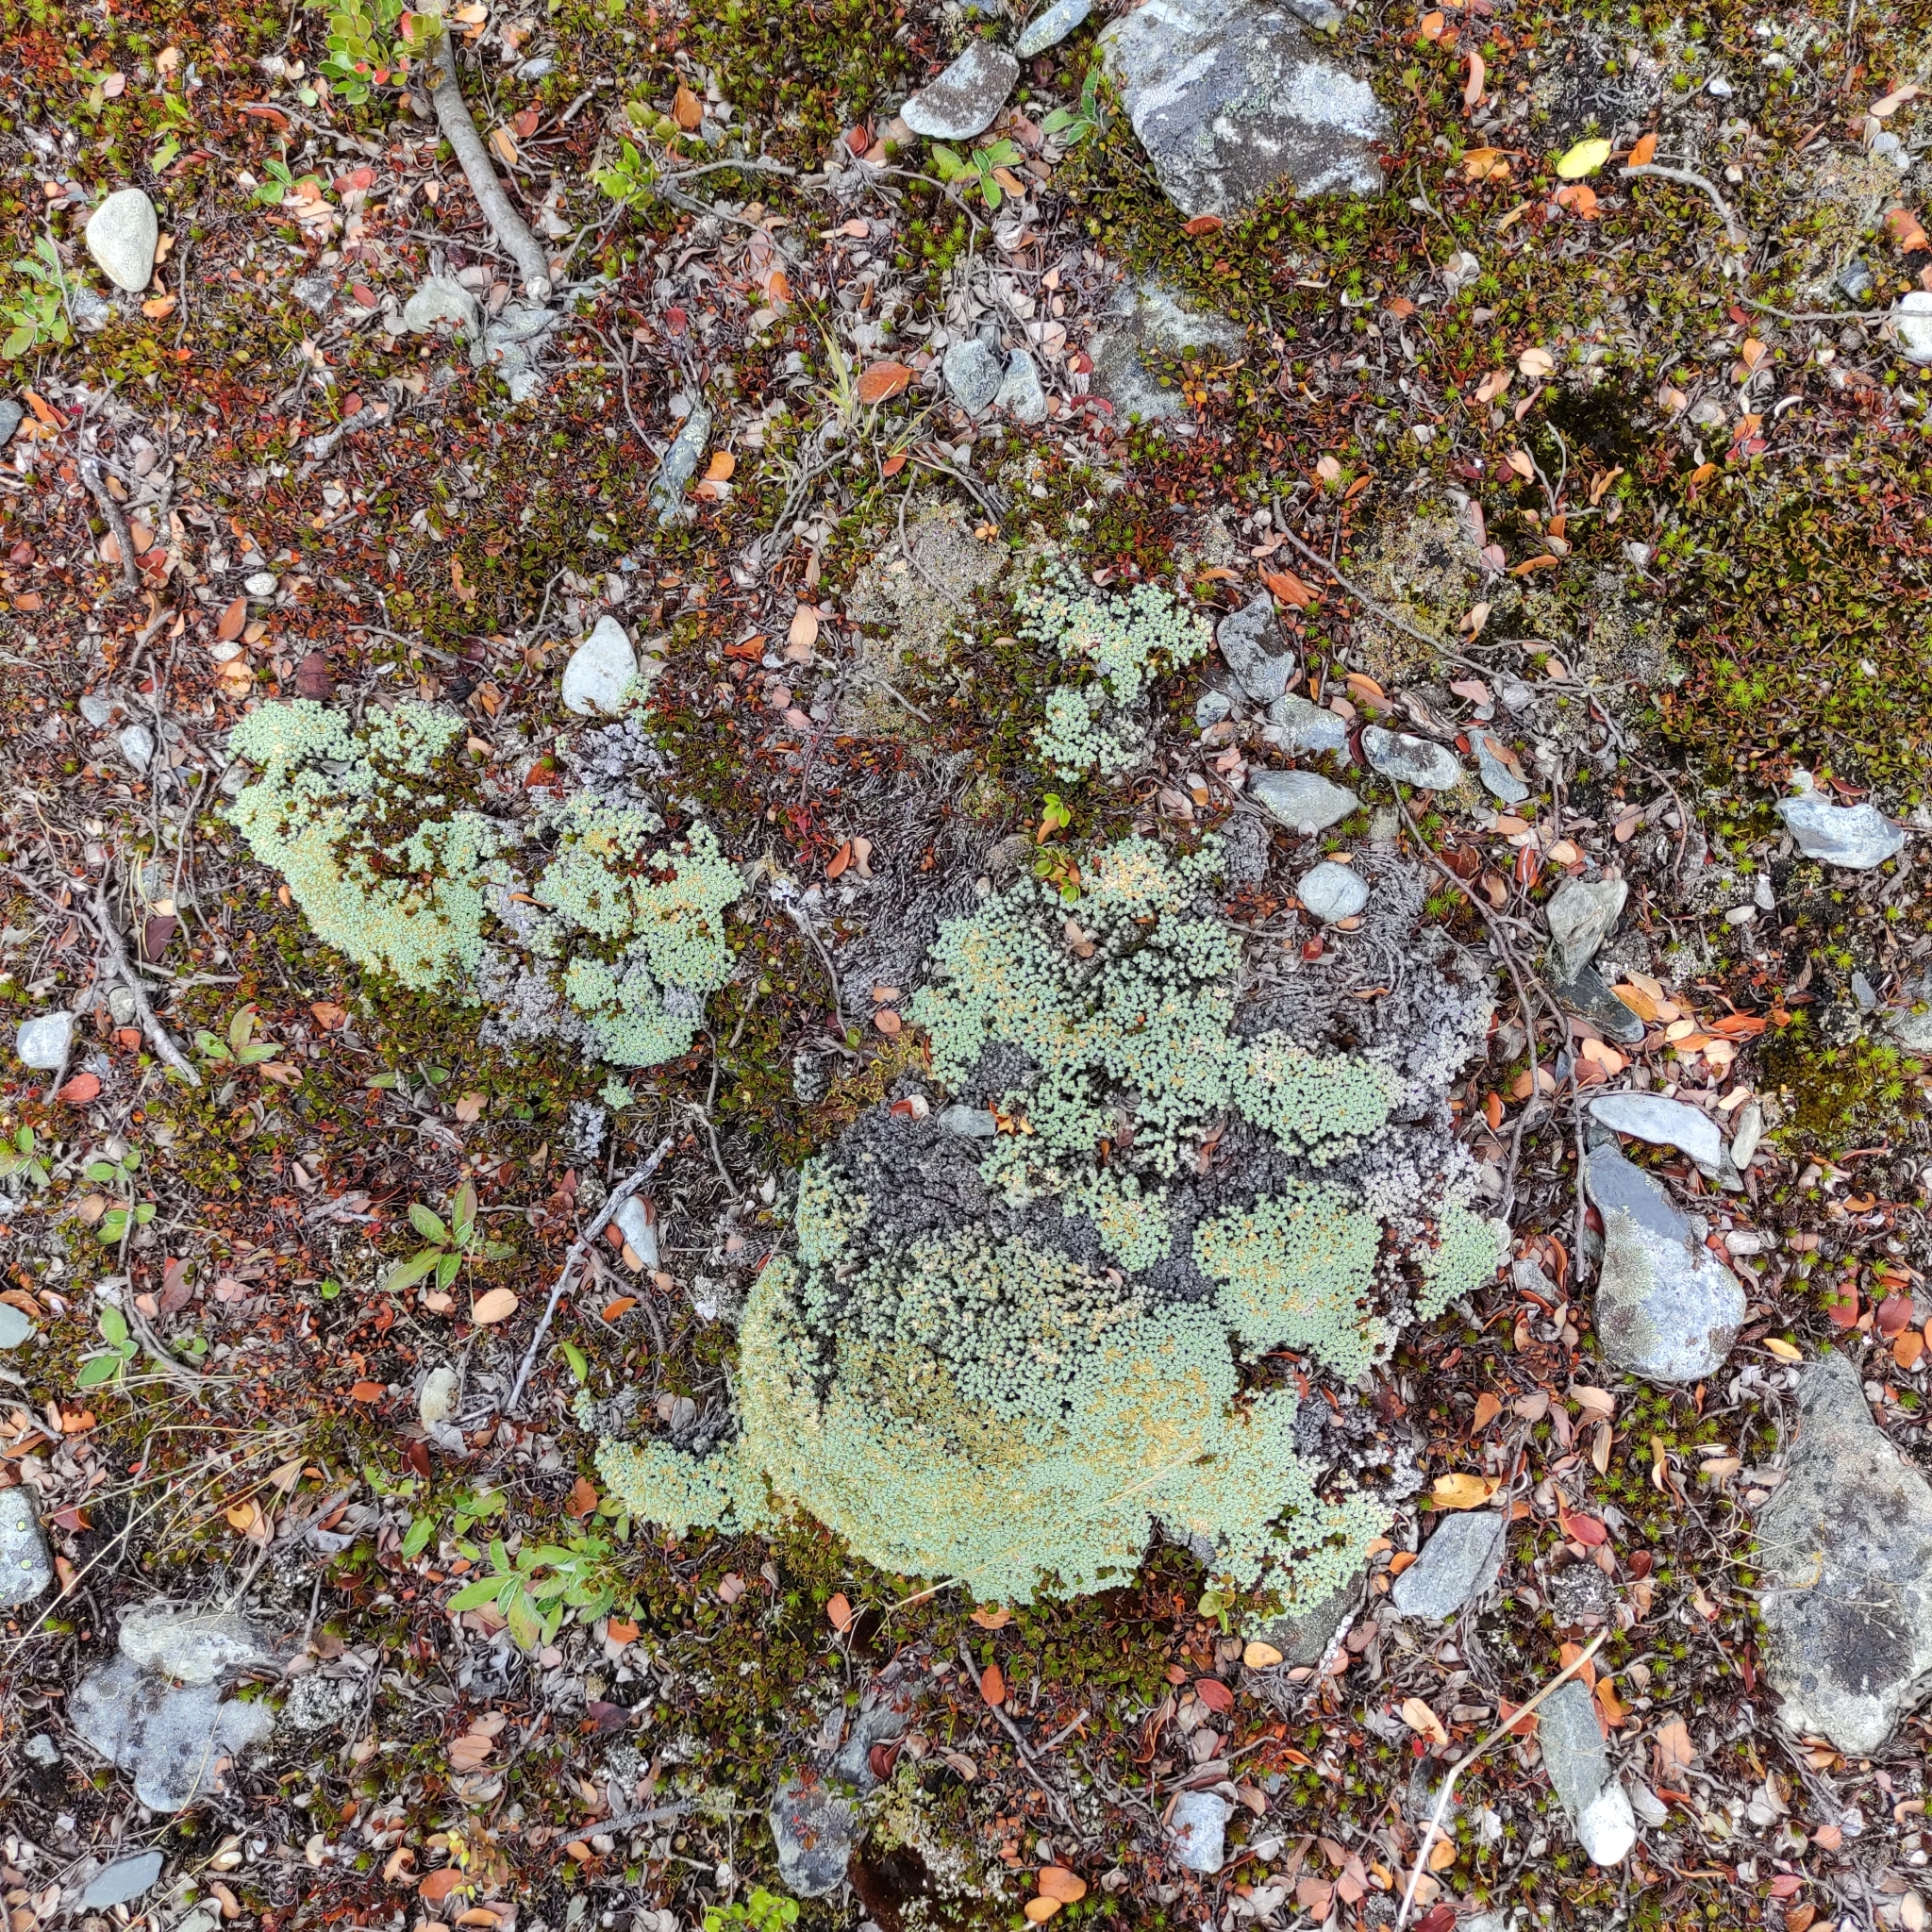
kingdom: Plantae
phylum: Tracheophyta
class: Magnoliopsida
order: Asterales
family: Asteraceae
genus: Raoulia
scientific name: Raoulia australis
